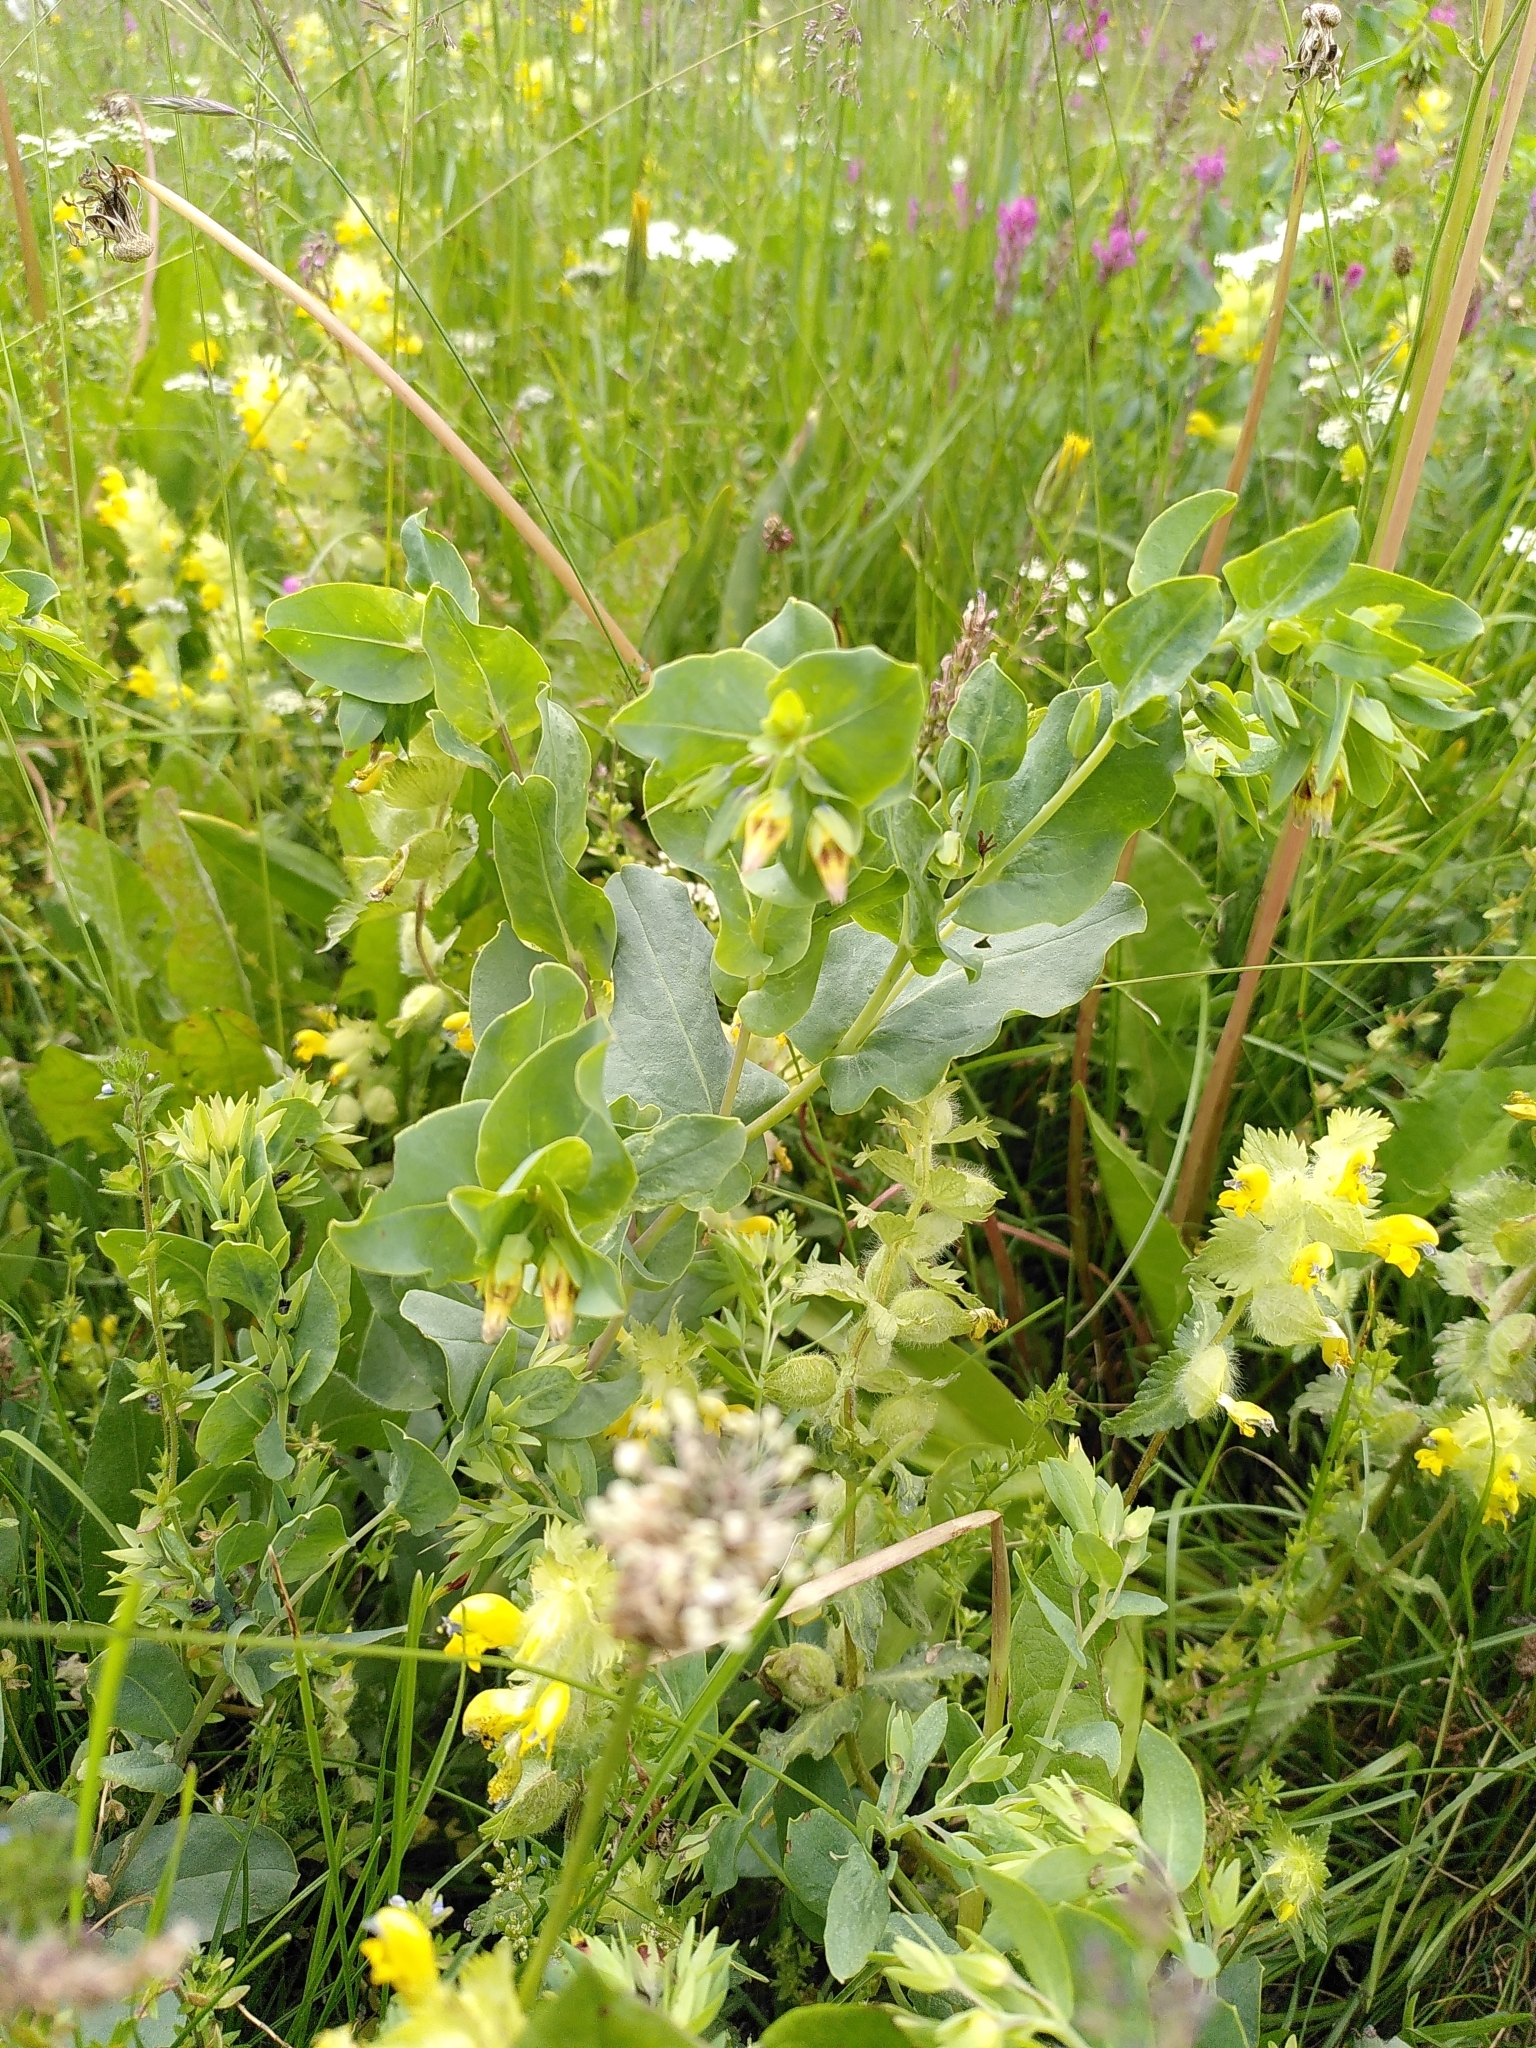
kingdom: Plantae
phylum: Tracheophyta
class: Magnoliopsida
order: Boraginales
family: Boraginaceae
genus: Cerinthe
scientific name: Cerinthe minor
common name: Lesser honeywort
